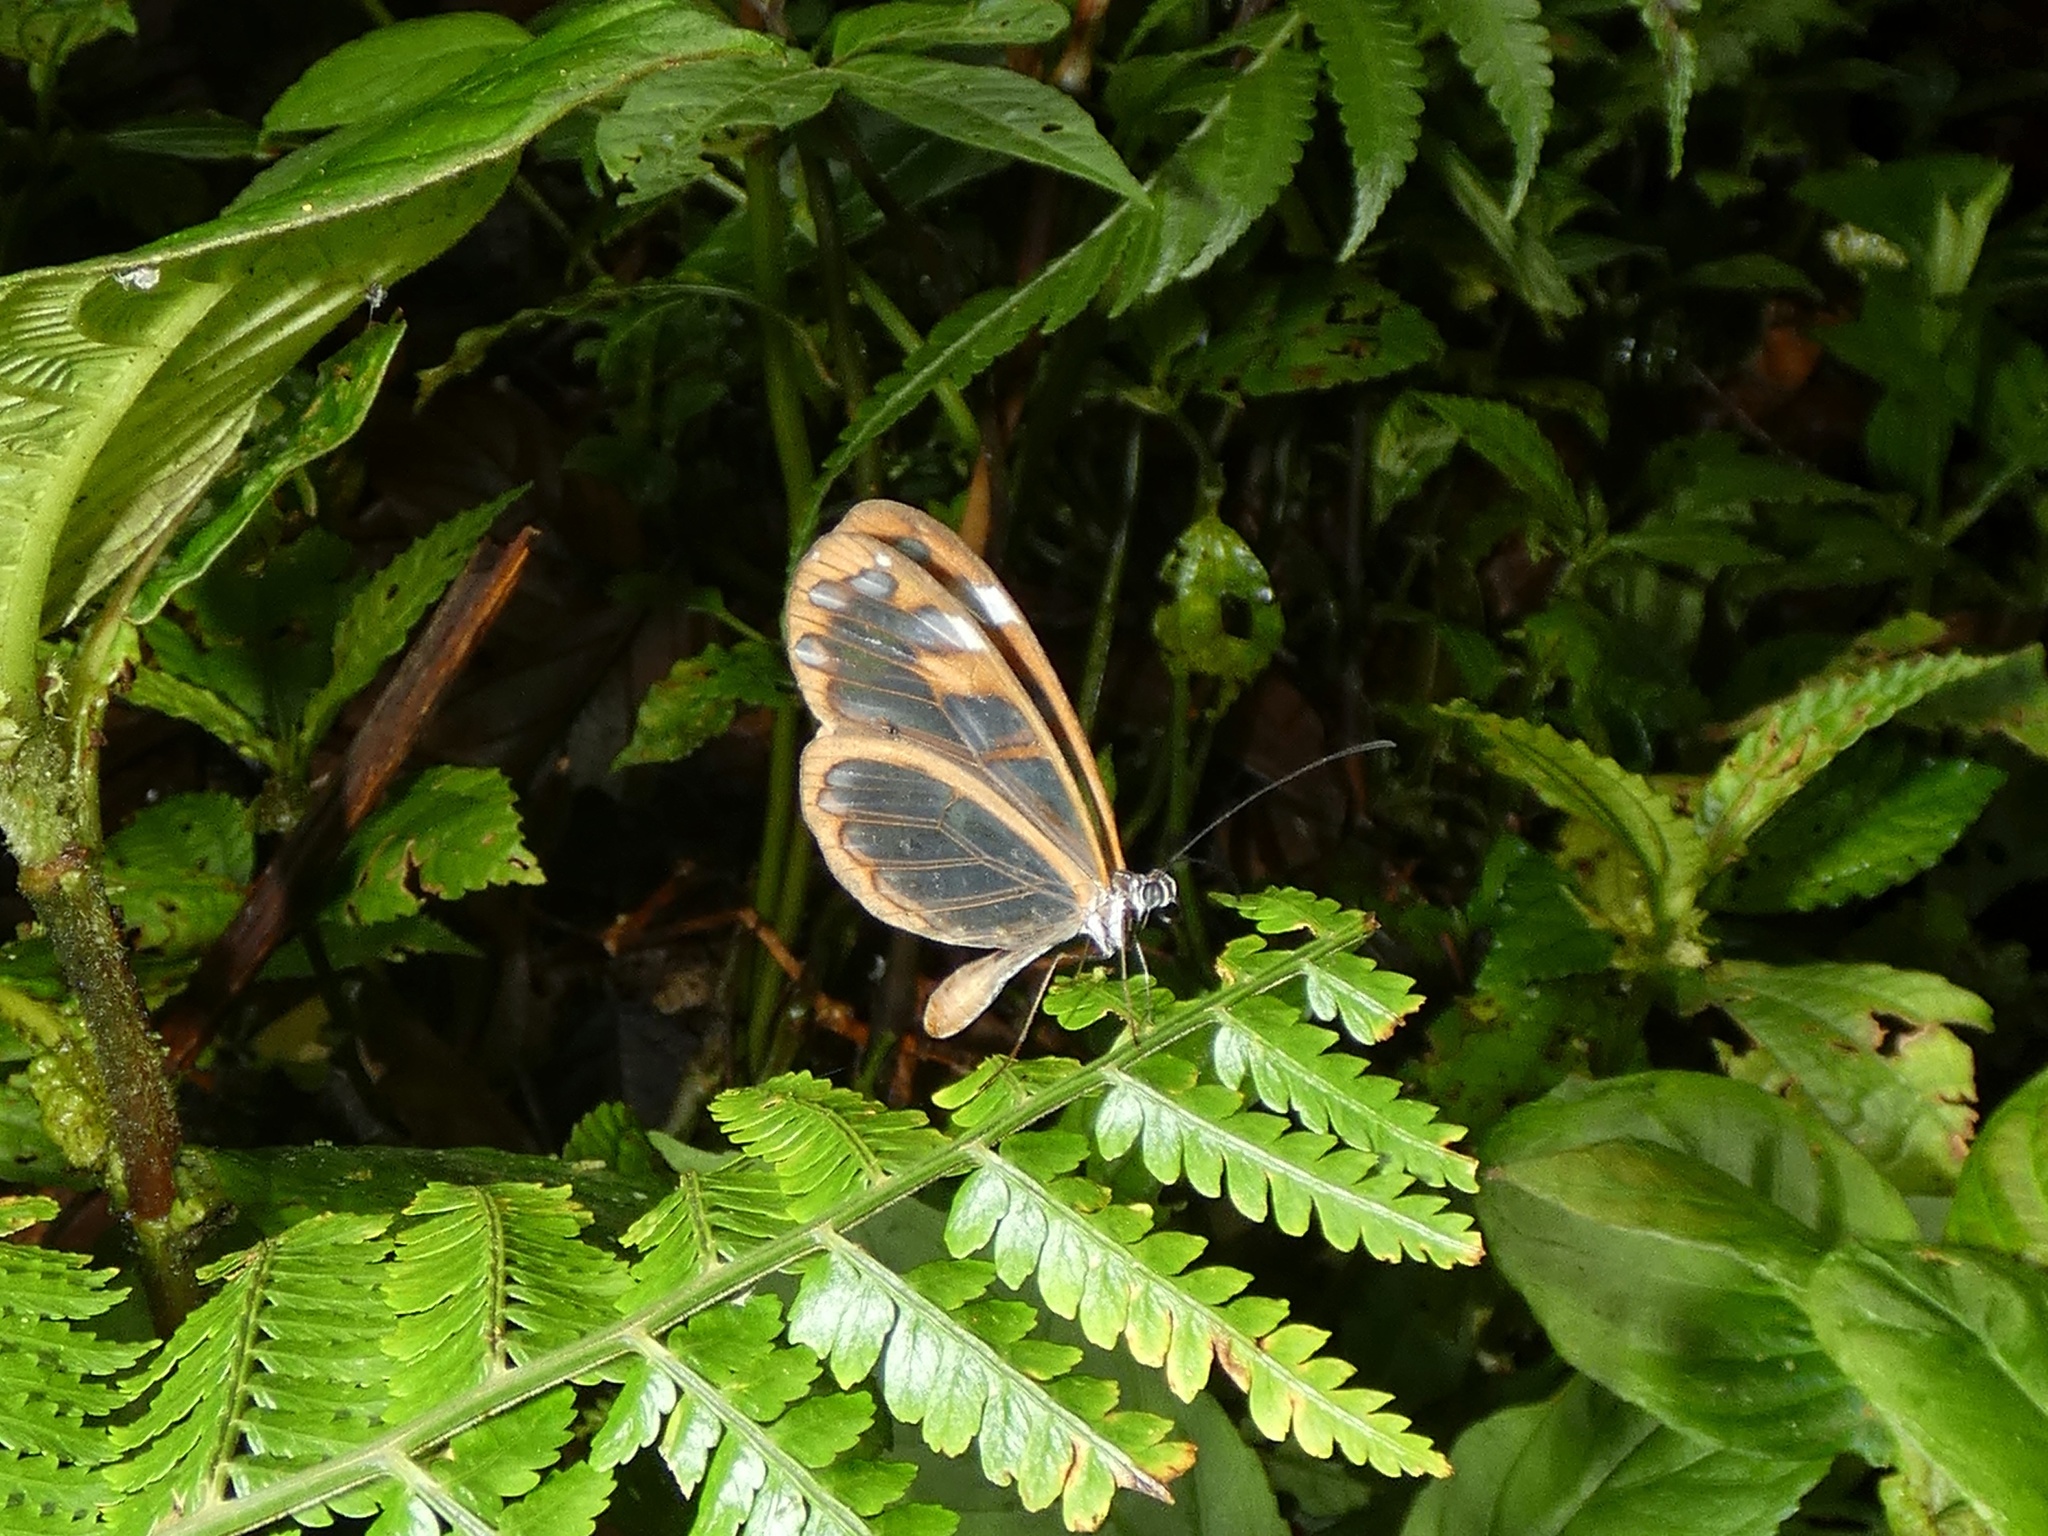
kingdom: Animalia
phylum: Arthropoda
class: Insecta
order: Lepidoptera
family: Nymphalidae
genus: Oleria
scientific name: Oleria vicina
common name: Vicina clearwing
